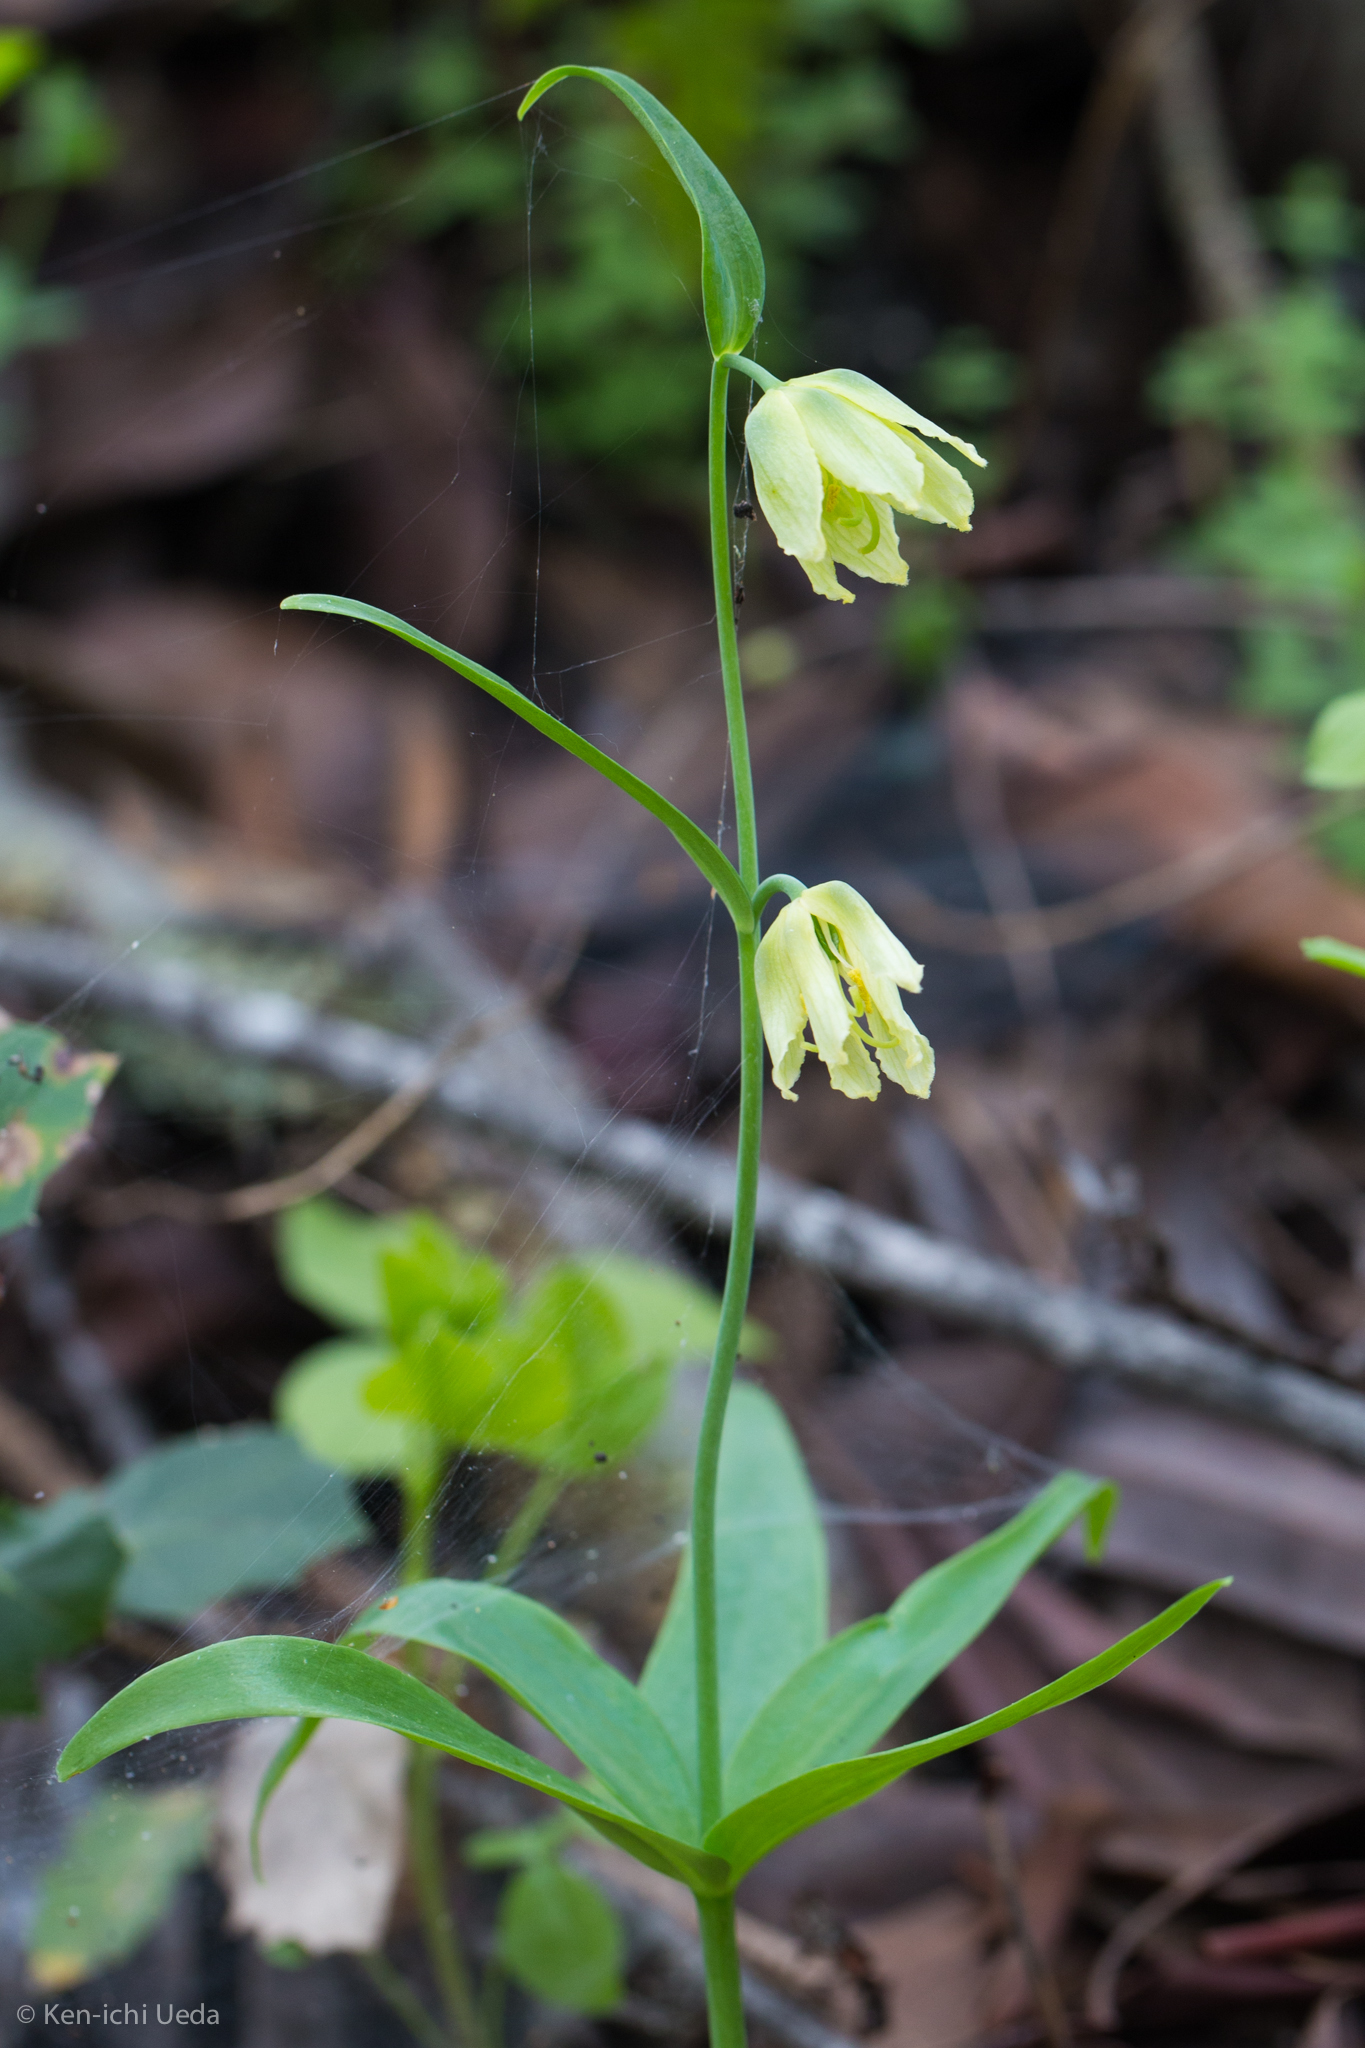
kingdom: Plantae
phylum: Tracheophyta
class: Liliopsida
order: Liliales
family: Liliaceae
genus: Fritillaria
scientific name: Fritillaria affinis
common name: Ojai fritillary
